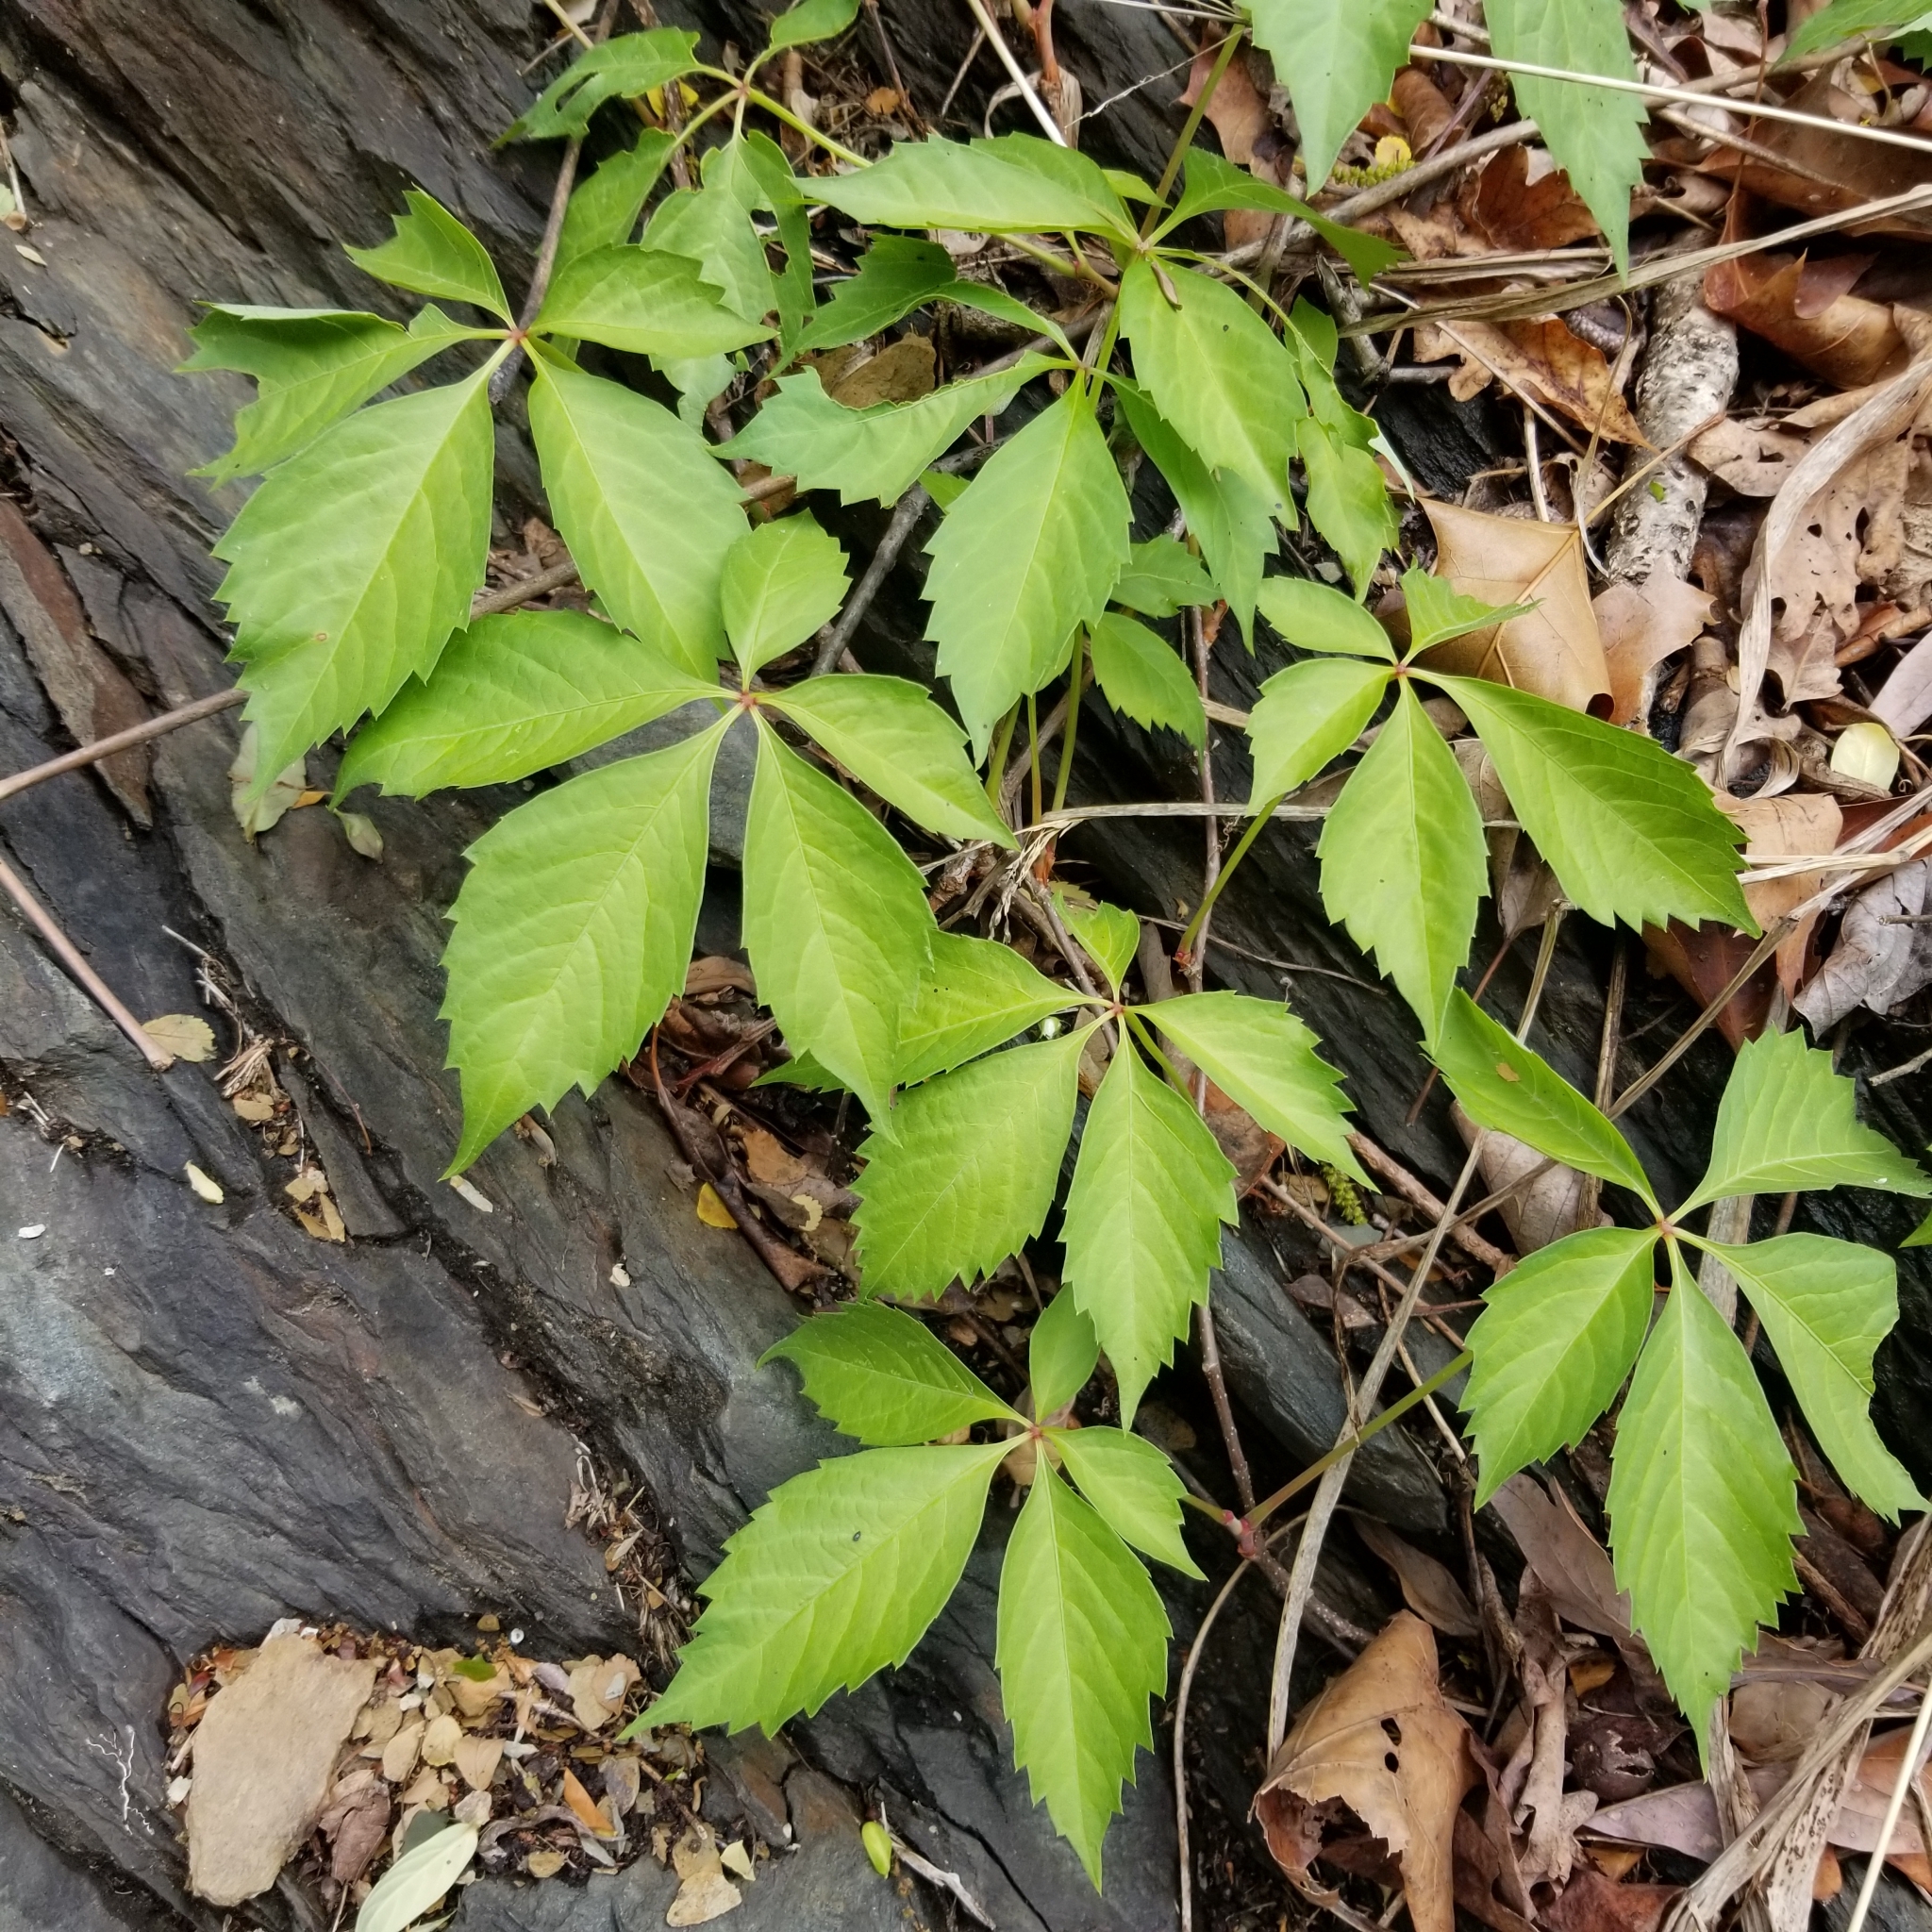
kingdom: Plantae
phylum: Tracheophyta
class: Magnoliopsida
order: Vitales
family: Vitaceae
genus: Parthenocissus
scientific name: Parthenocissus quinquefolia
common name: Virginia-creeper
